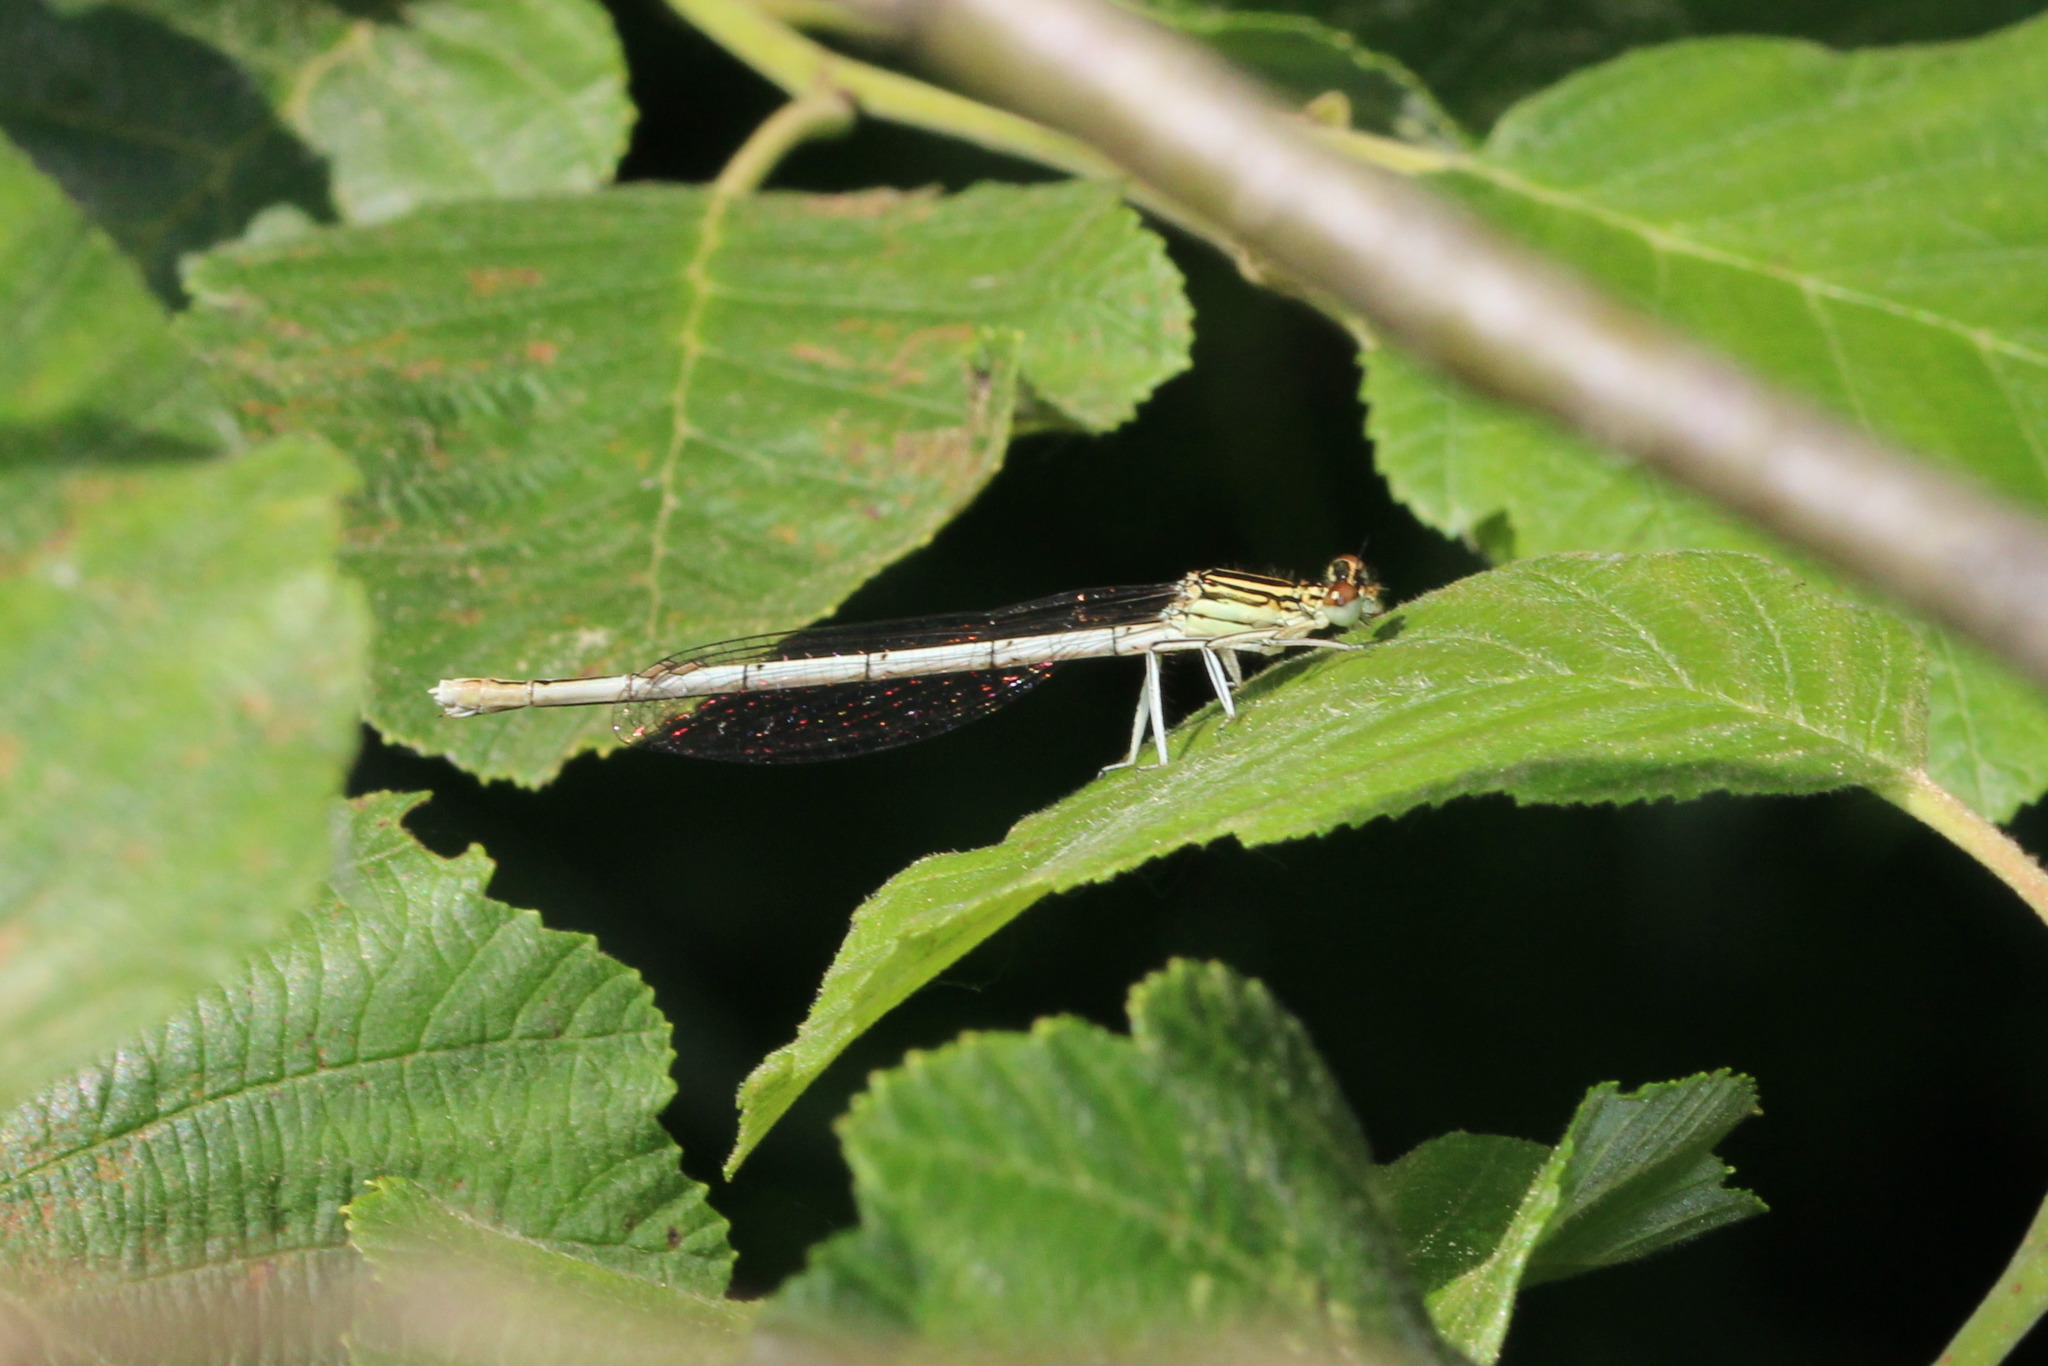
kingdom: Animalia
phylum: Arthropoda
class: Insecta
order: Odonata
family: Platycnemididae
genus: Platycnemis
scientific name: Platycnemis pennipes
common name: White-legged damselfly
